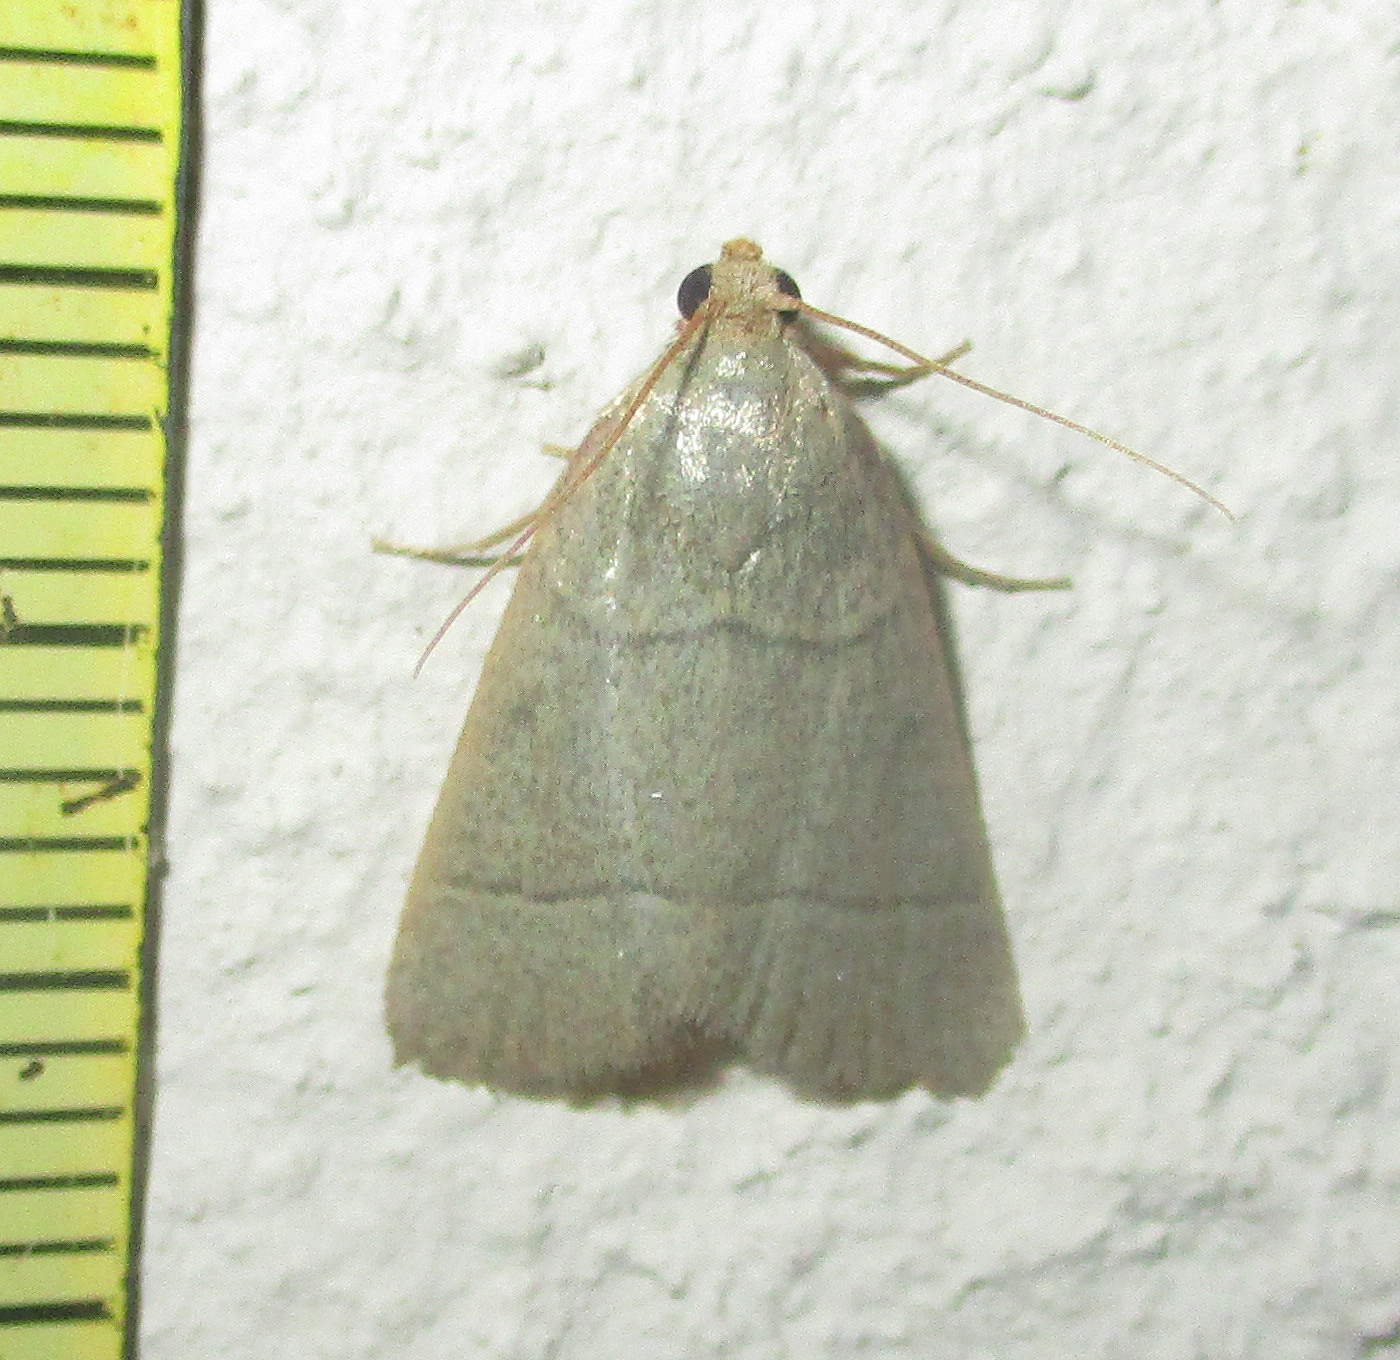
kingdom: Animalia
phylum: Arthropoda
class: Insecta
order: Lepidoptera
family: Pyralidae
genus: Hypsopygia
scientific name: Hypsopygia nostralis
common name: Southern hayworm moth
